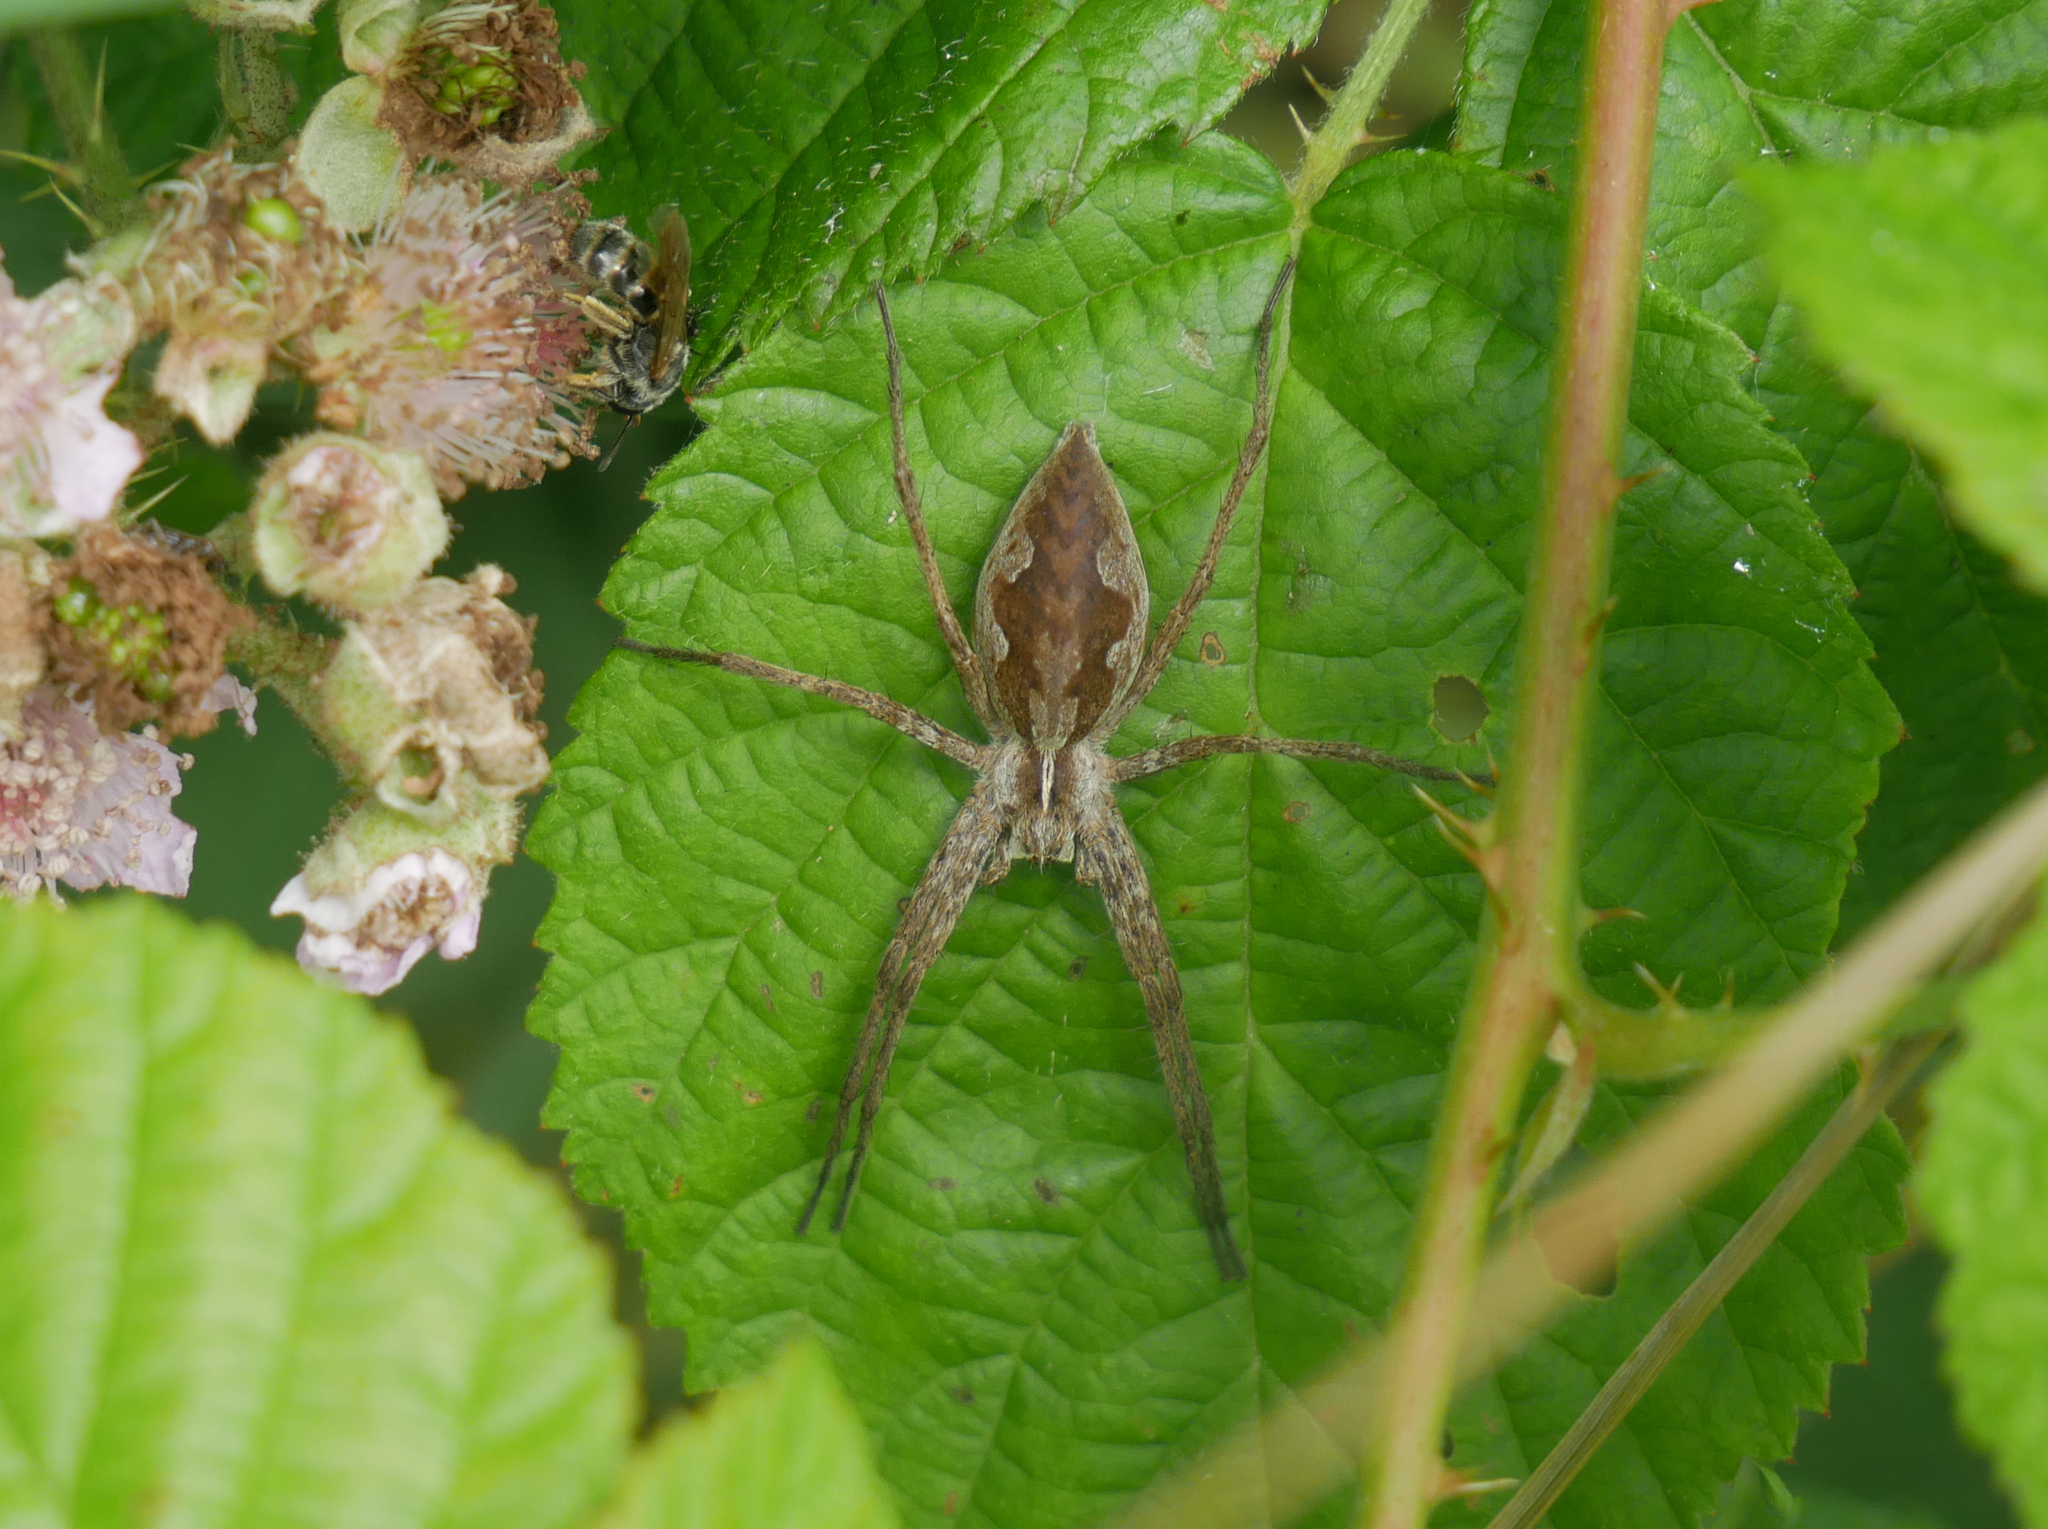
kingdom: Animalia
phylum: Arthropoda
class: Arachnida
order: Araneae
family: Pisauridae
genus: Pisaura
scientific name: Pisaura mirabilis
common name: Tent spider
